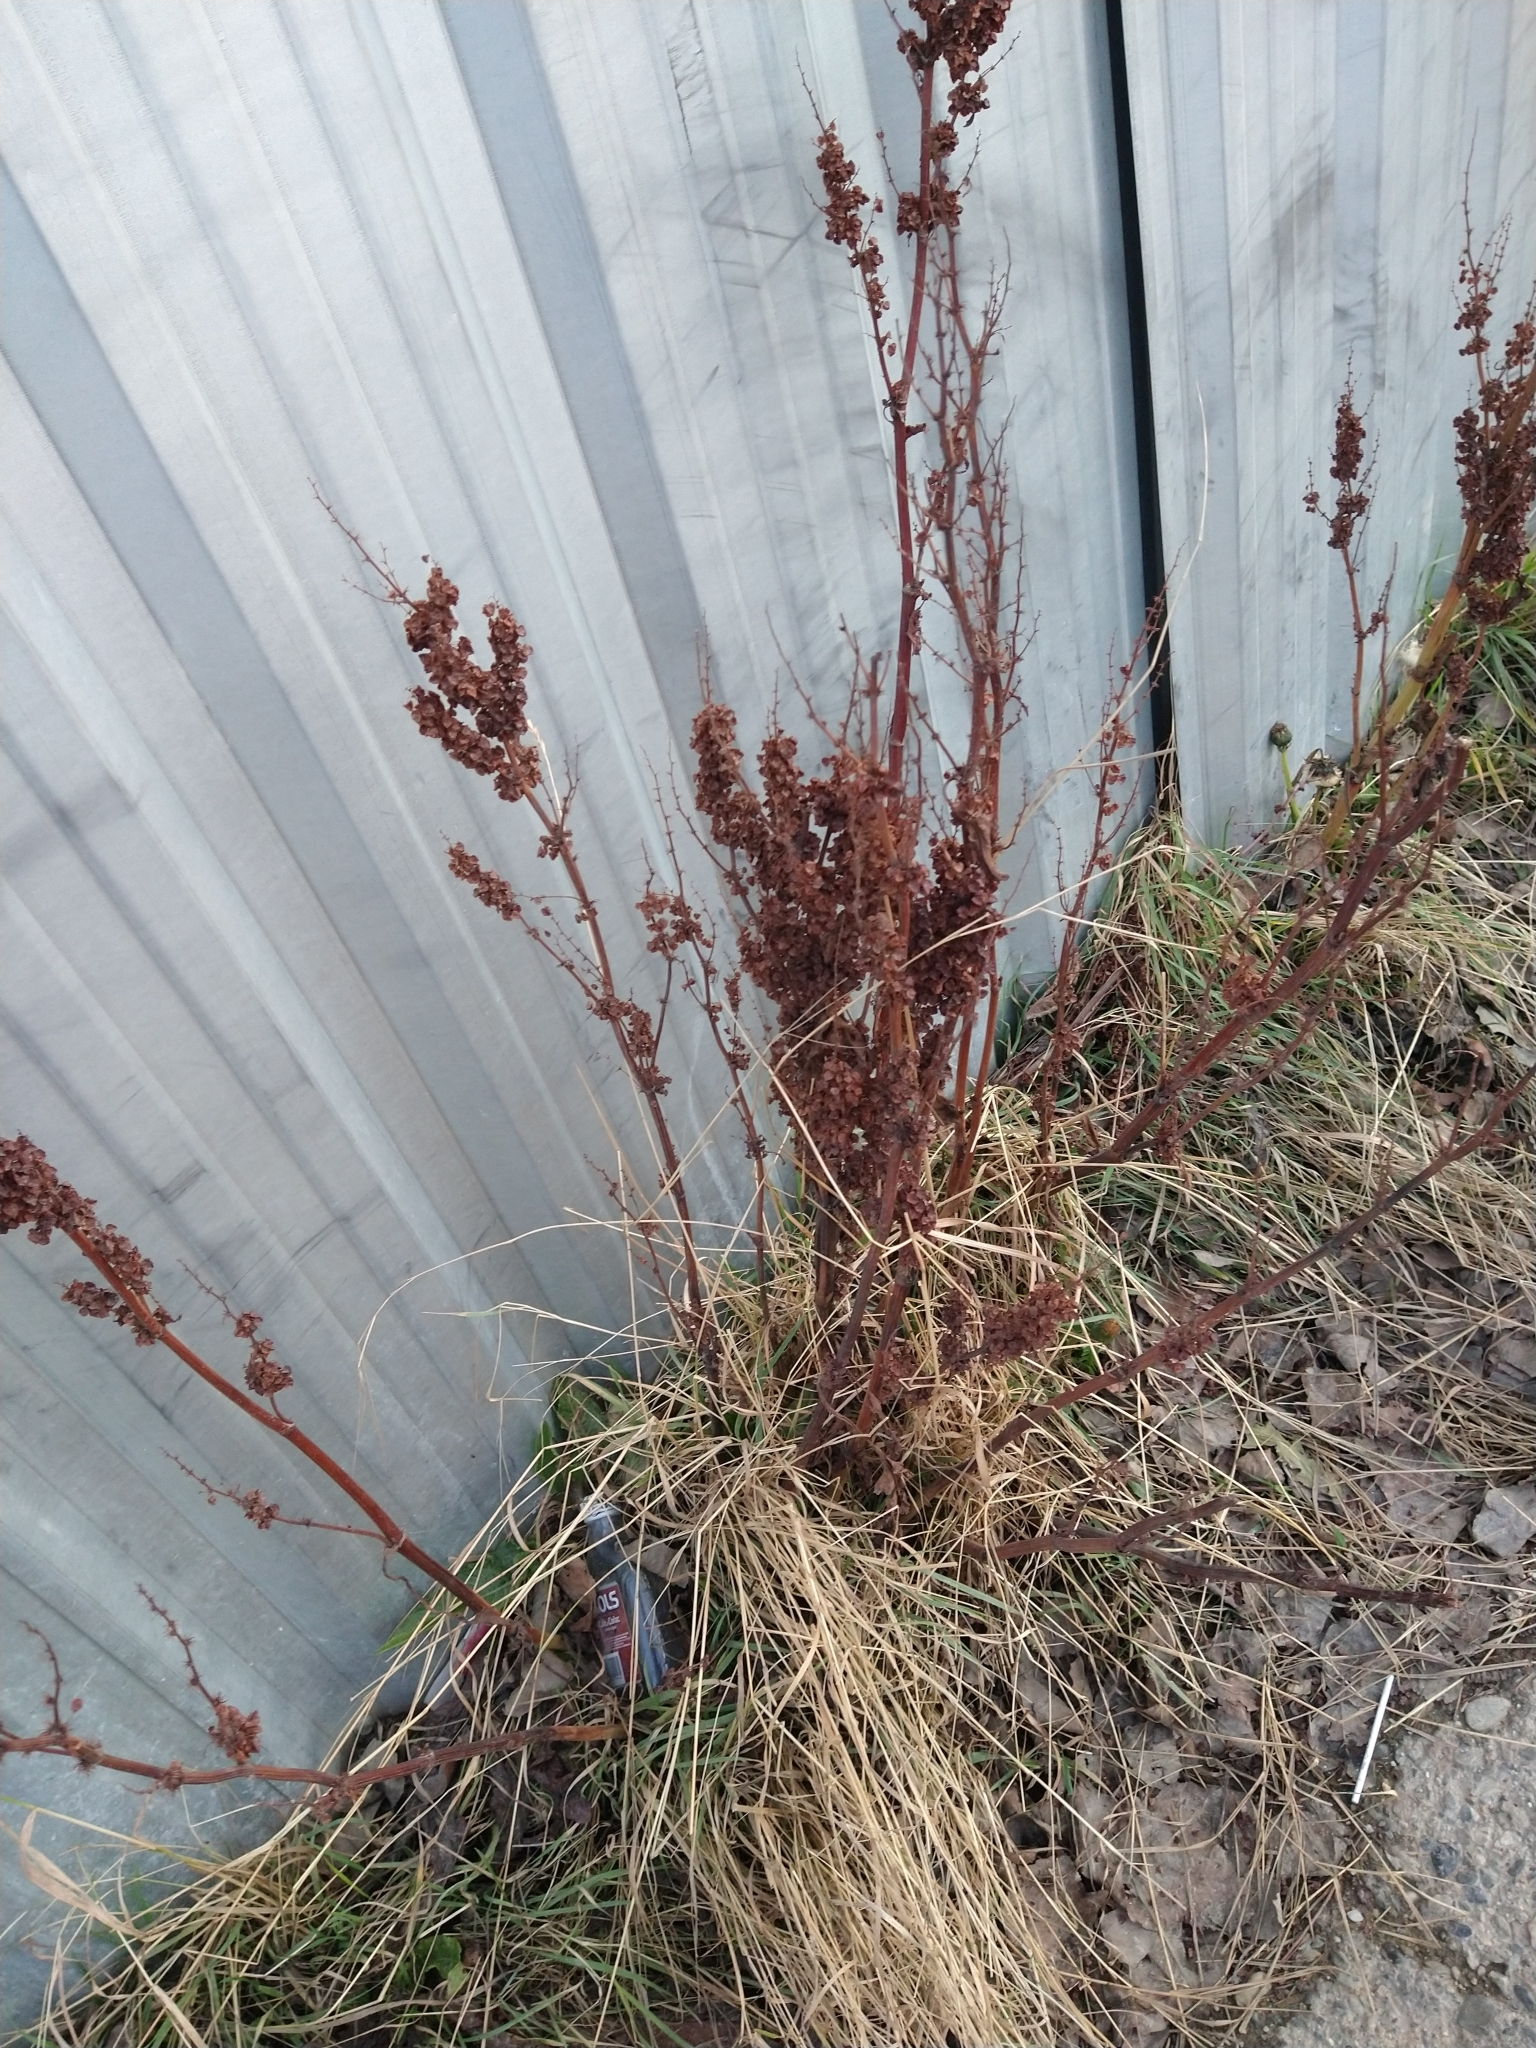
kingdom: Plantae
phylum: Tracheophyta
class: Magnoliopsida
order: Caryophyllales
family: Polygonaceae
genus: Rumex
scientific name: Rumex crispus
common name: Curled dock
